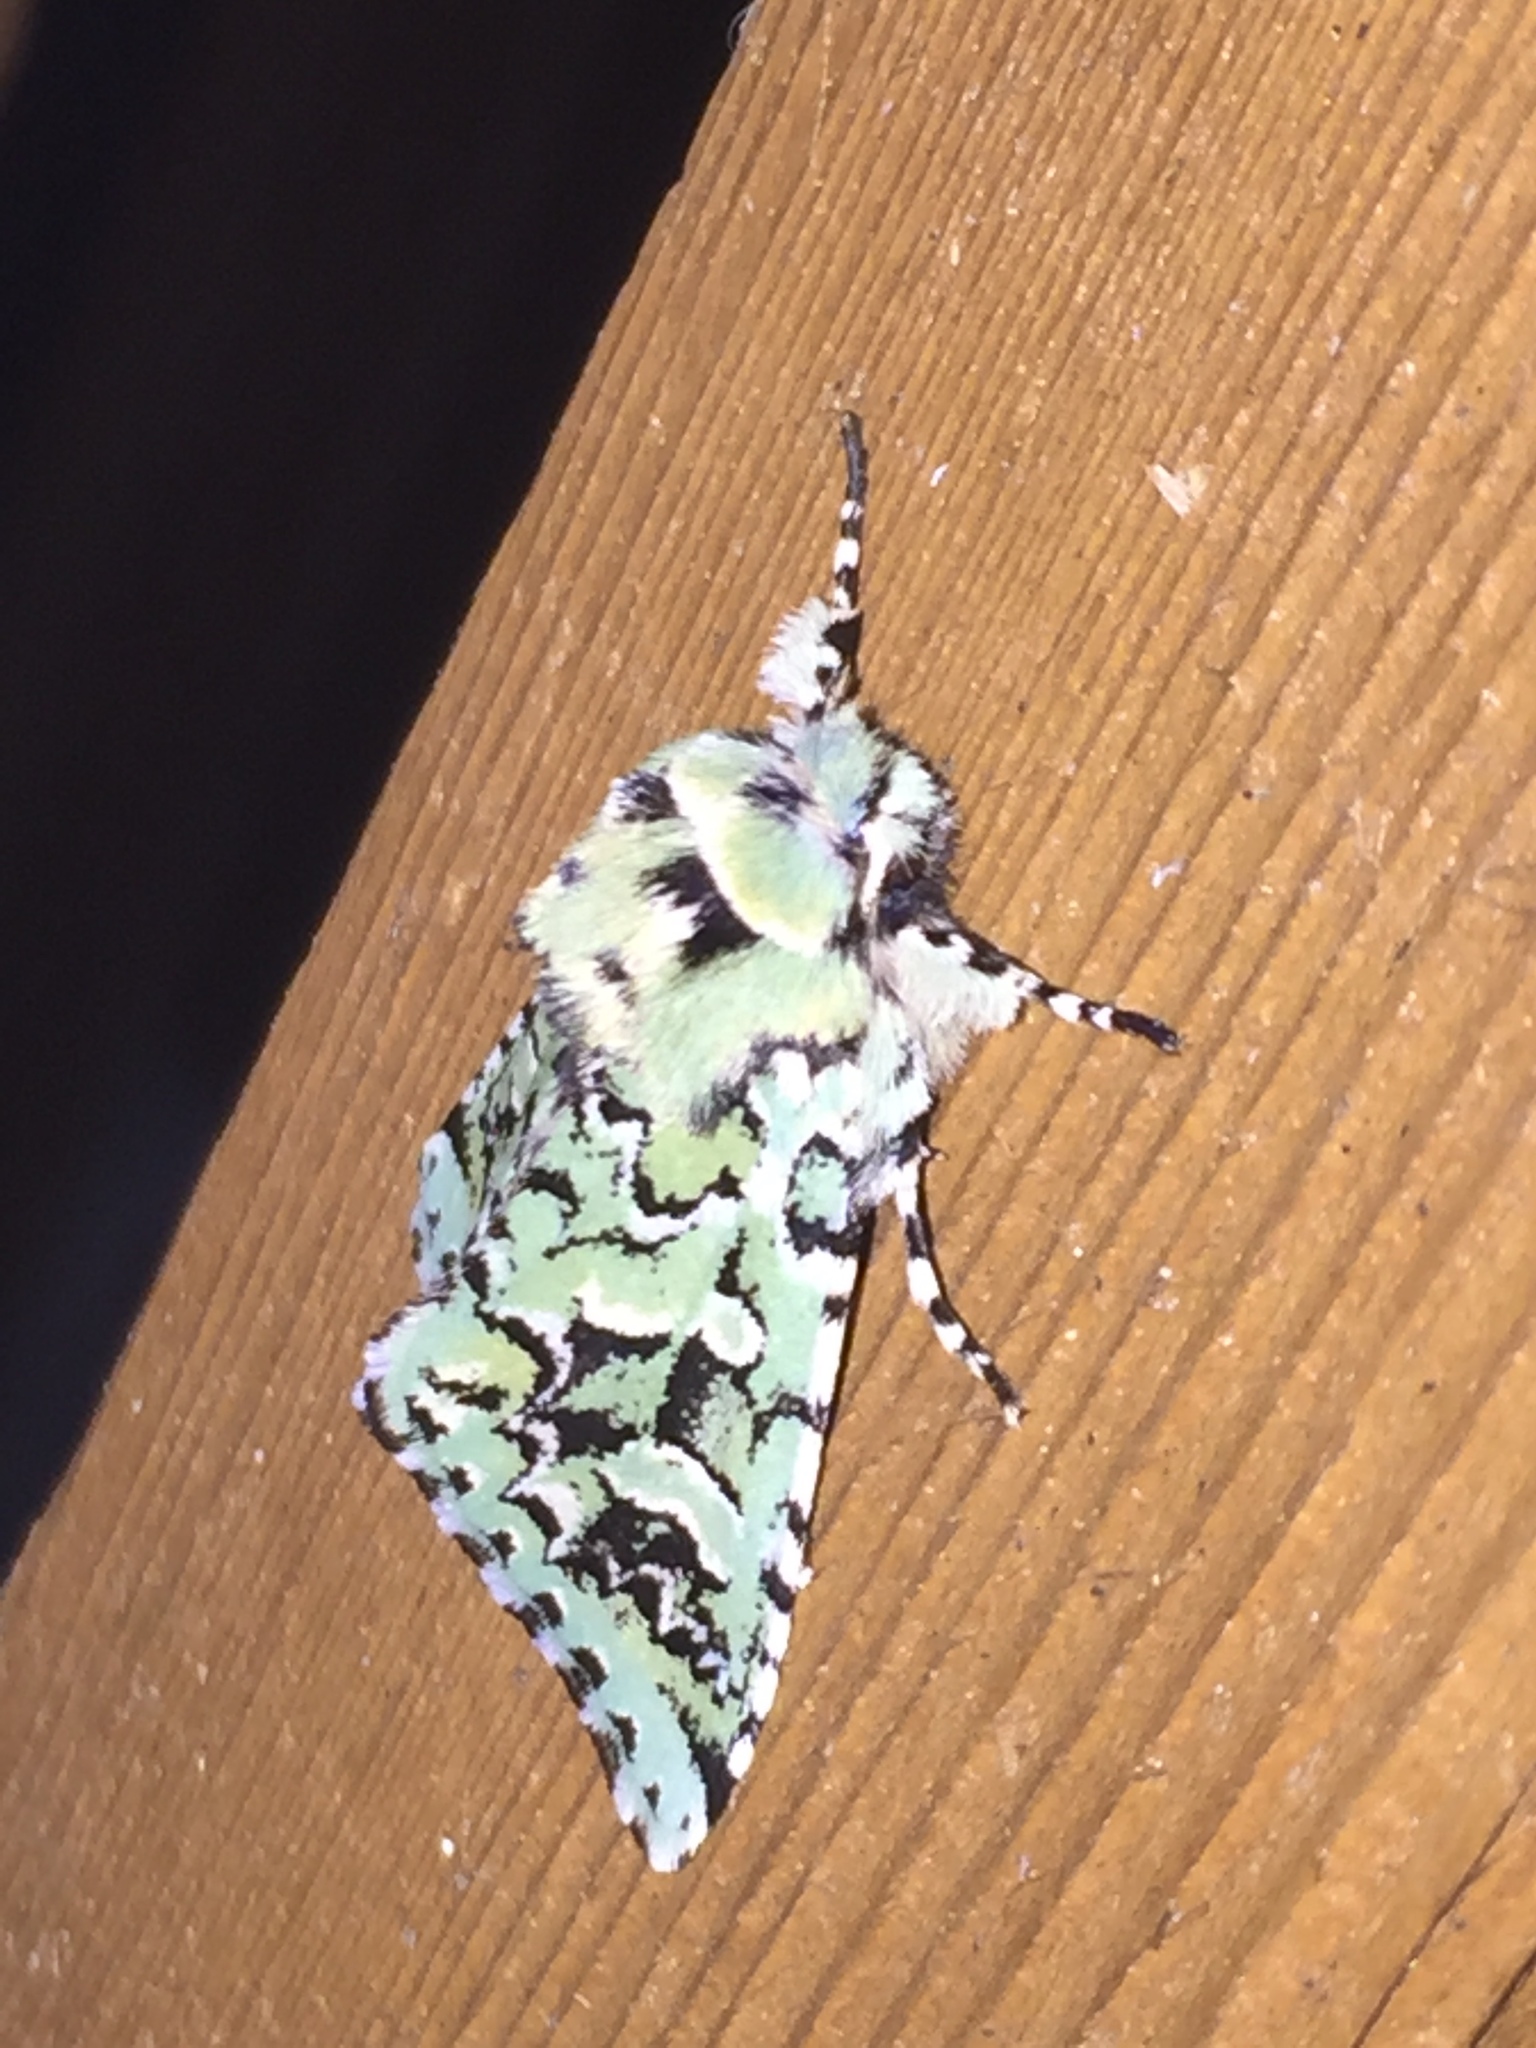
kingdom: Animalia
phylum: Arthropoda
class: Insecta
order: Lepidoptera
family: Noctuidae
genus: Feralia
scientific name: Feralia comstocki
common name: Comstock's sallow
